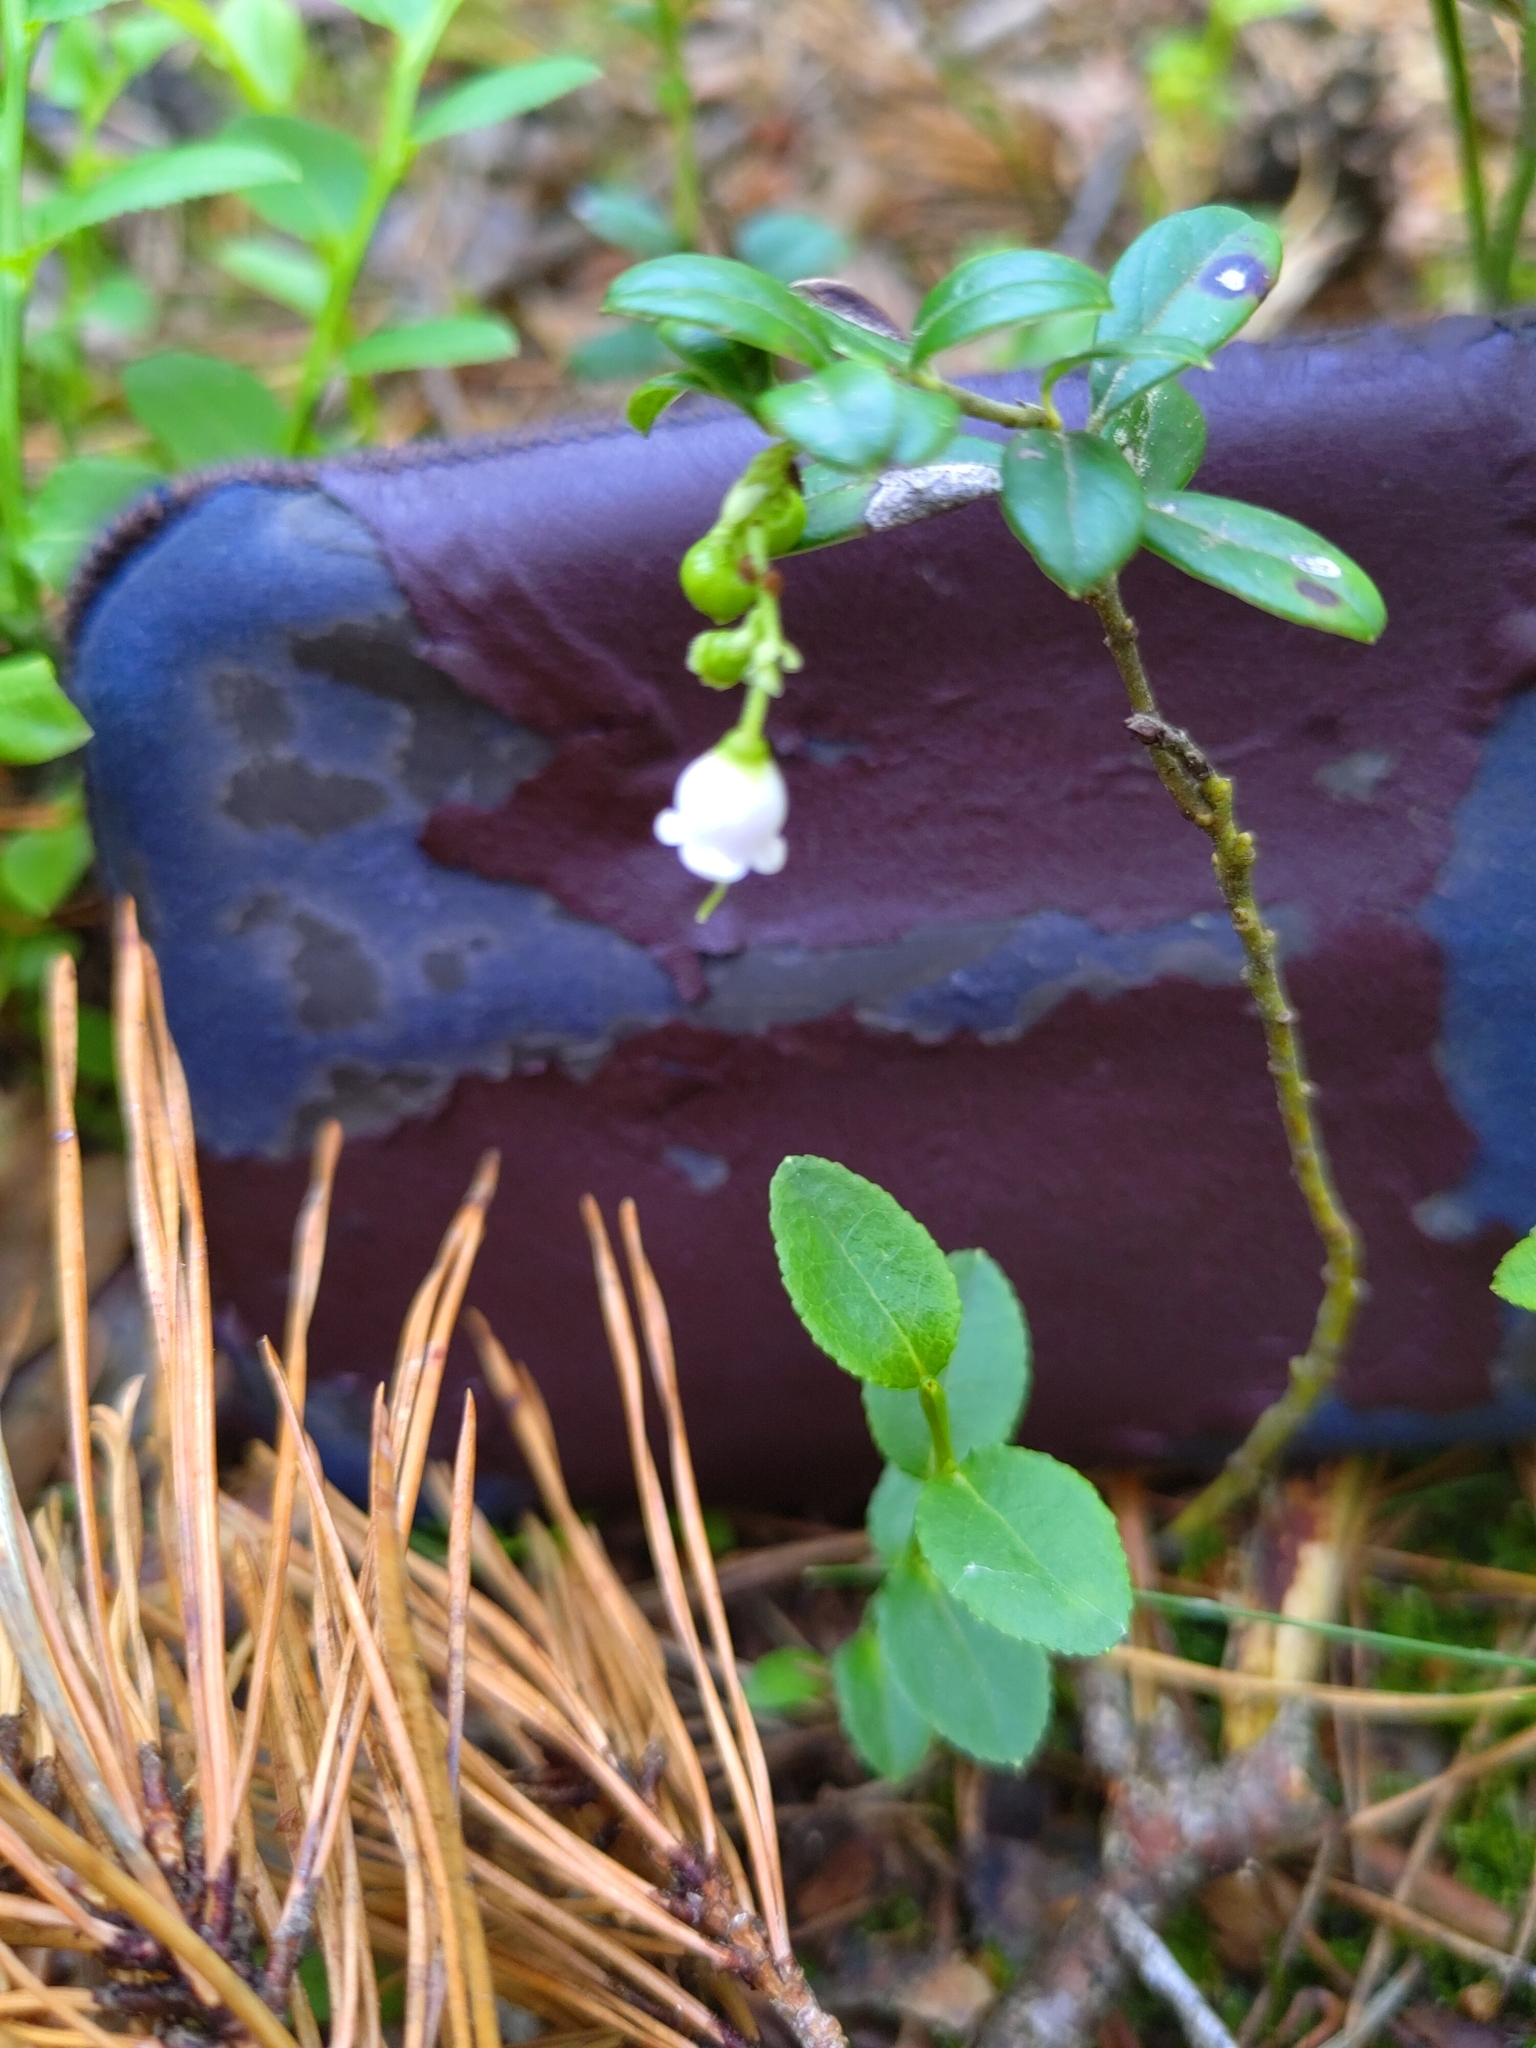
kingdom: Plantae
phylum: Tracheophyta
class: Magnoliopsida
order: Ericales
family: Ericaceae
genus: Vaccinium
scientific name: Vaccinium vitis-idaea
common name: Cowberry
